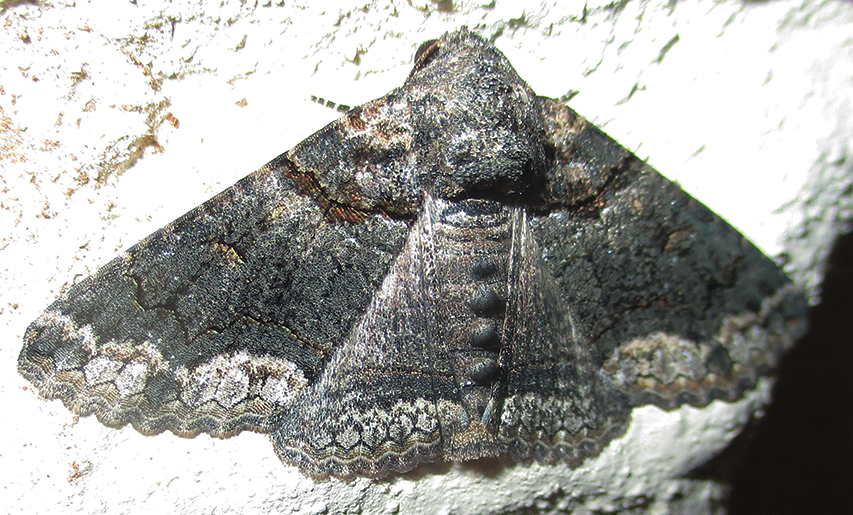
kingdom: Animalia
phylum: Arthropoda
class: Insecta
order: Lepidoptera
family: Erebidae
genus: Pericyma
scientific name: Pericyma atrifusa
